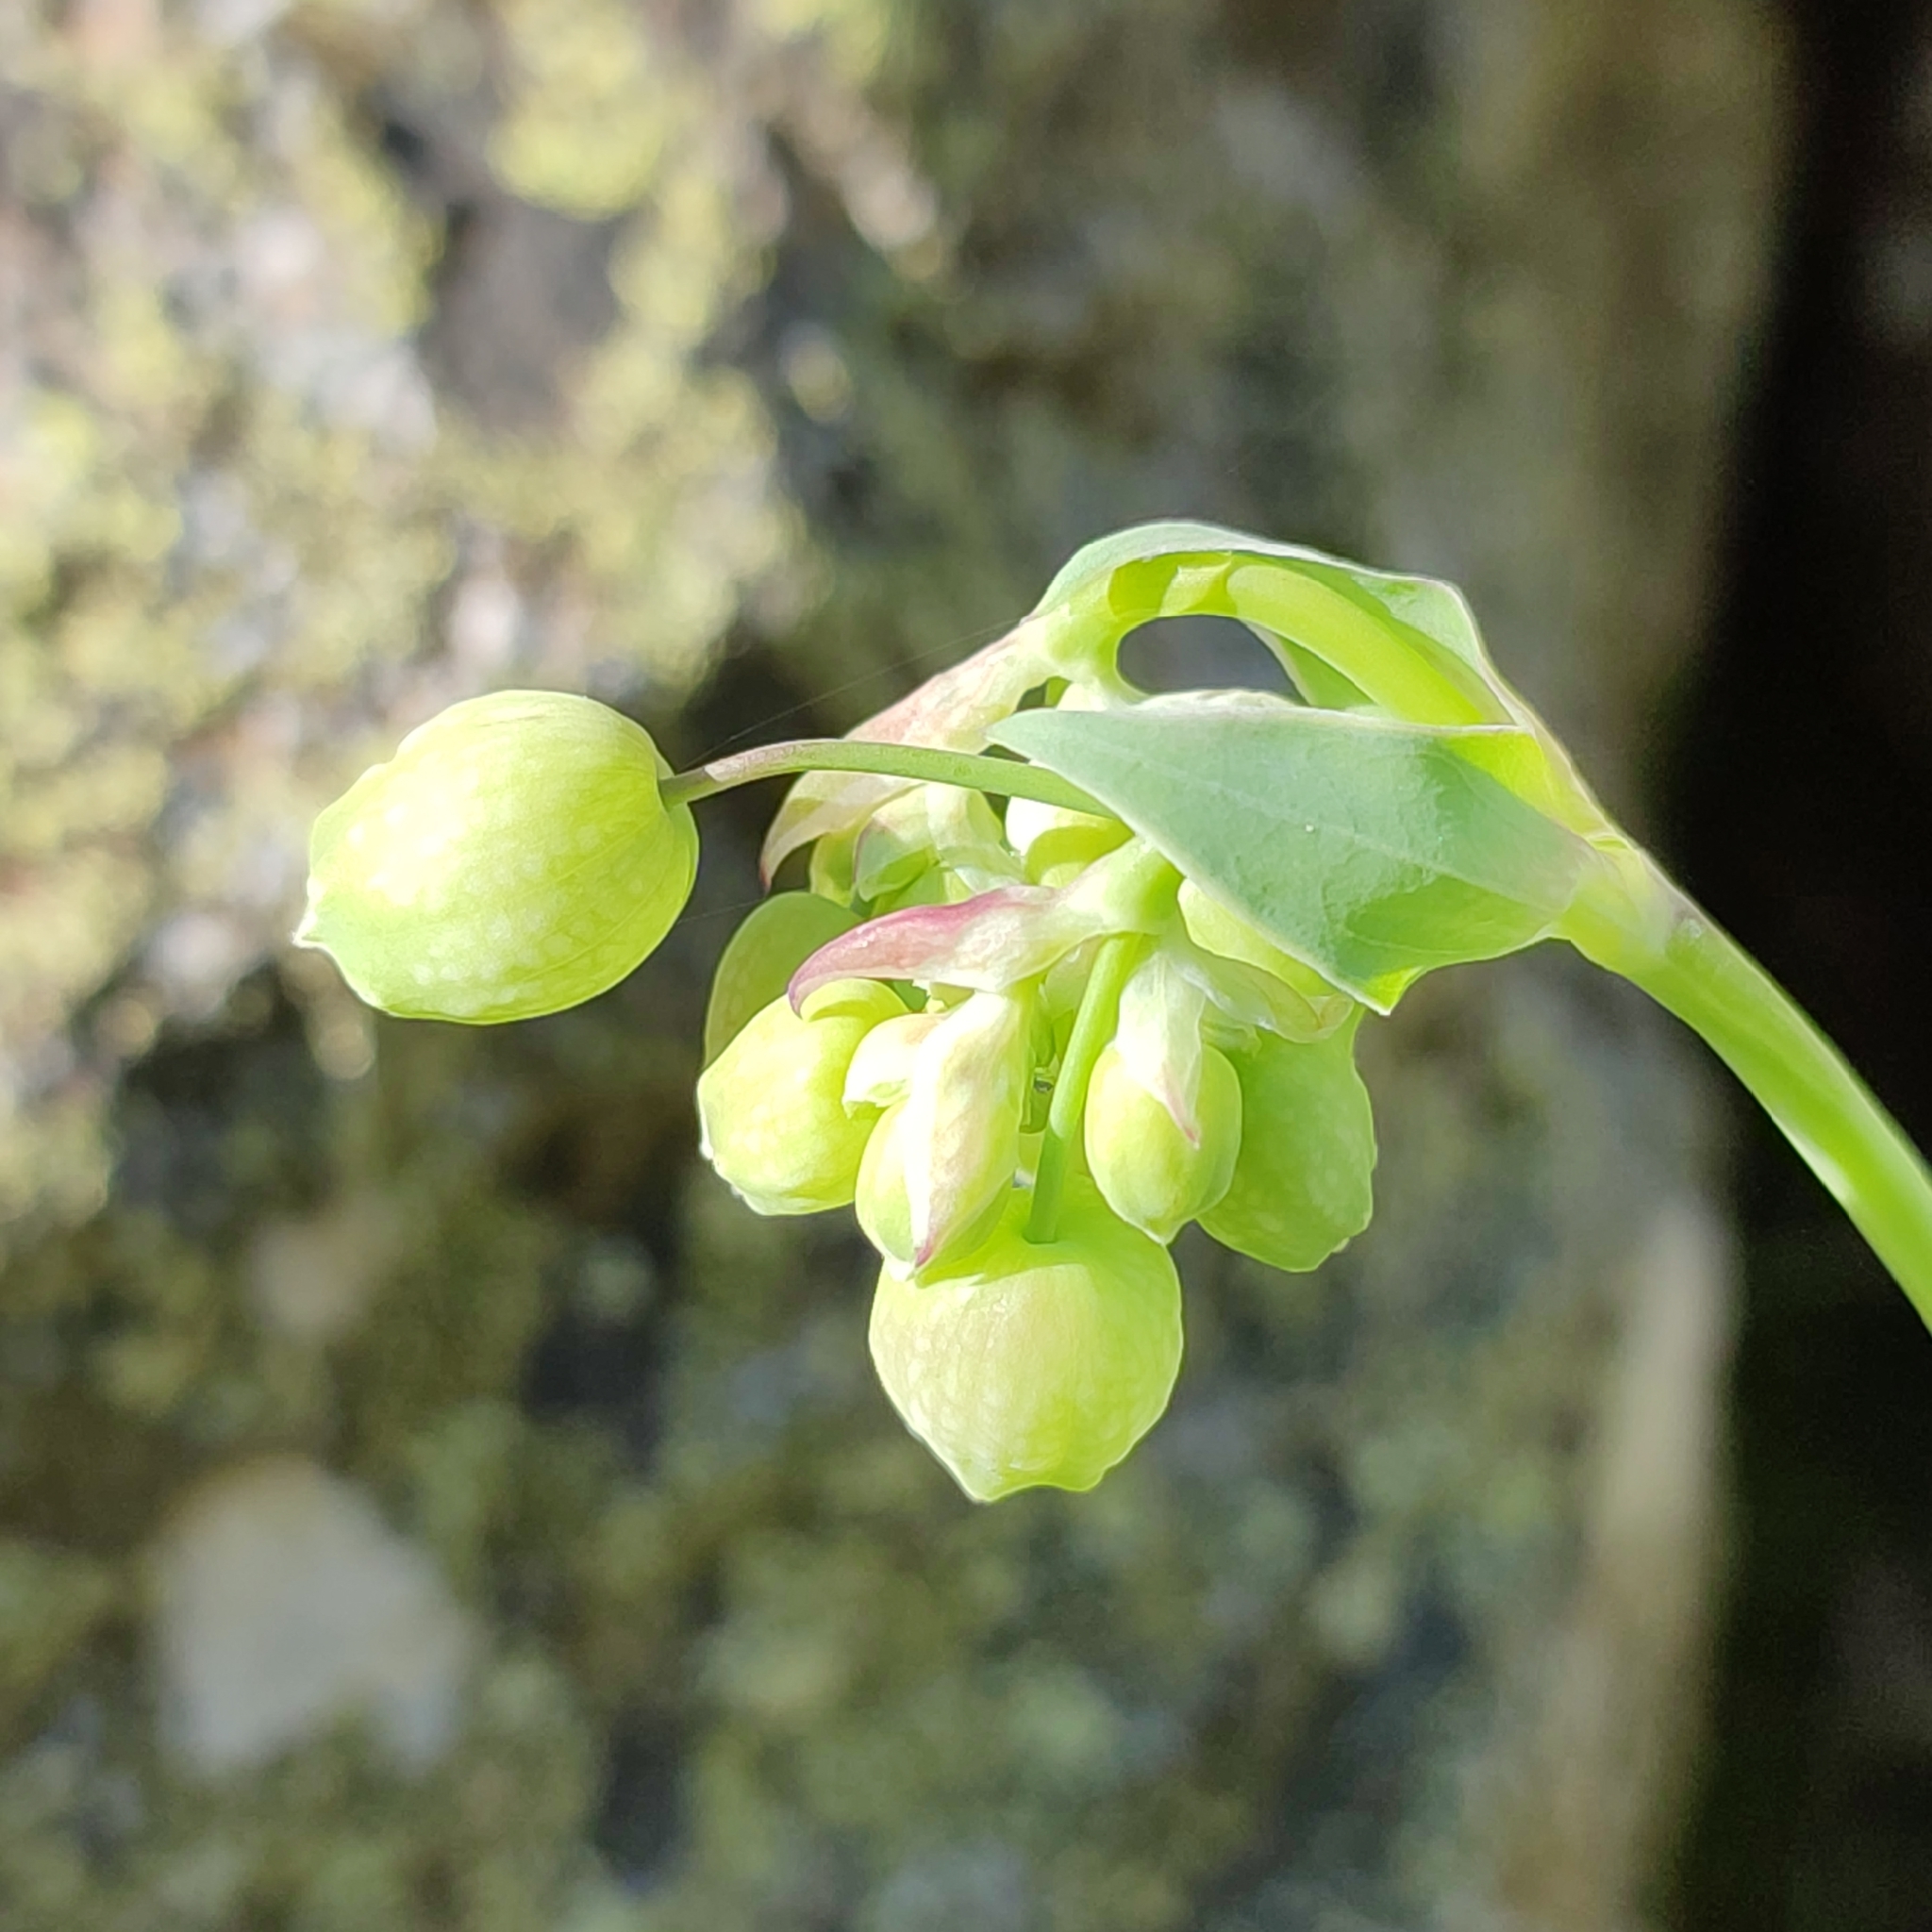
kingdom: Plantae
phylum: Tracheophyta
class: Magnoliopsida
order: Caryophyllales
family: Caryophyllaceae
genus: Silene
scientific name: Silene vulgaris
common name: Bladder campion
